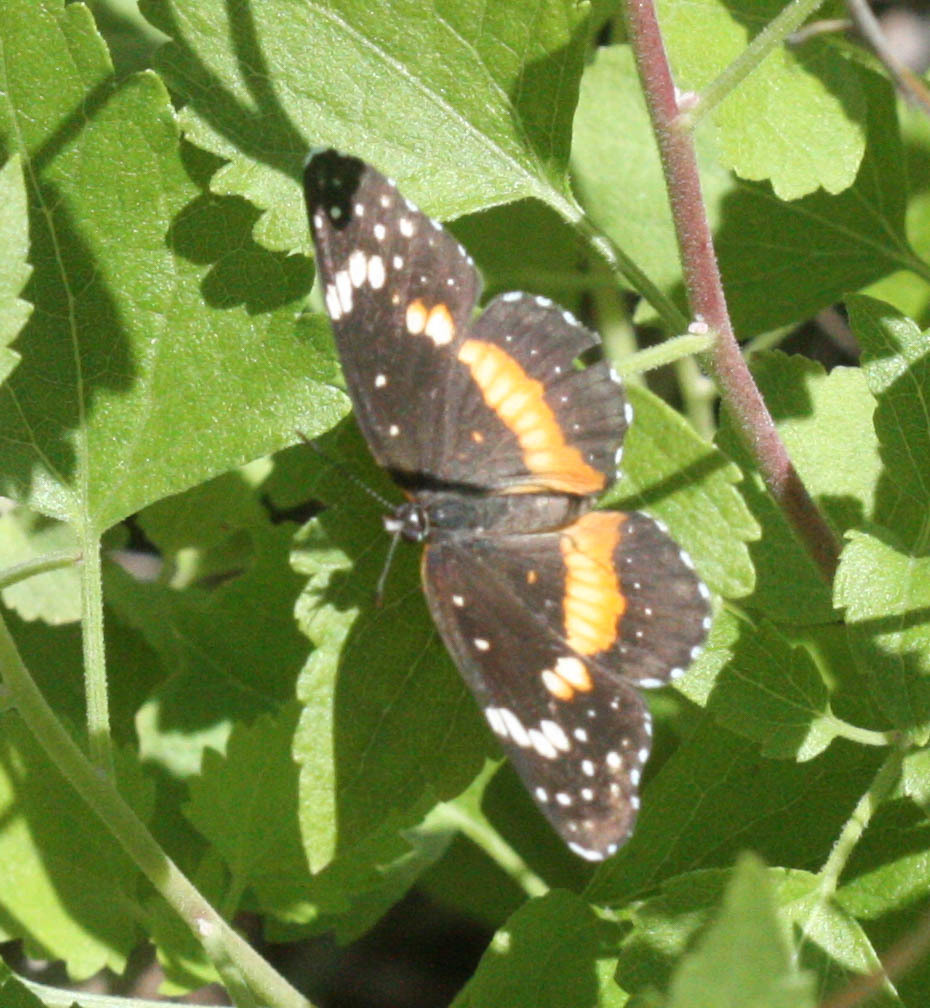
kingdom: Animalia
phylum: Arthropoda
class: Insecta
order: Lepidoptera
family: Nymphalidae
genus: Chlosyne
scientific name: Chlosyne lacinia
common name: Bordered patch
